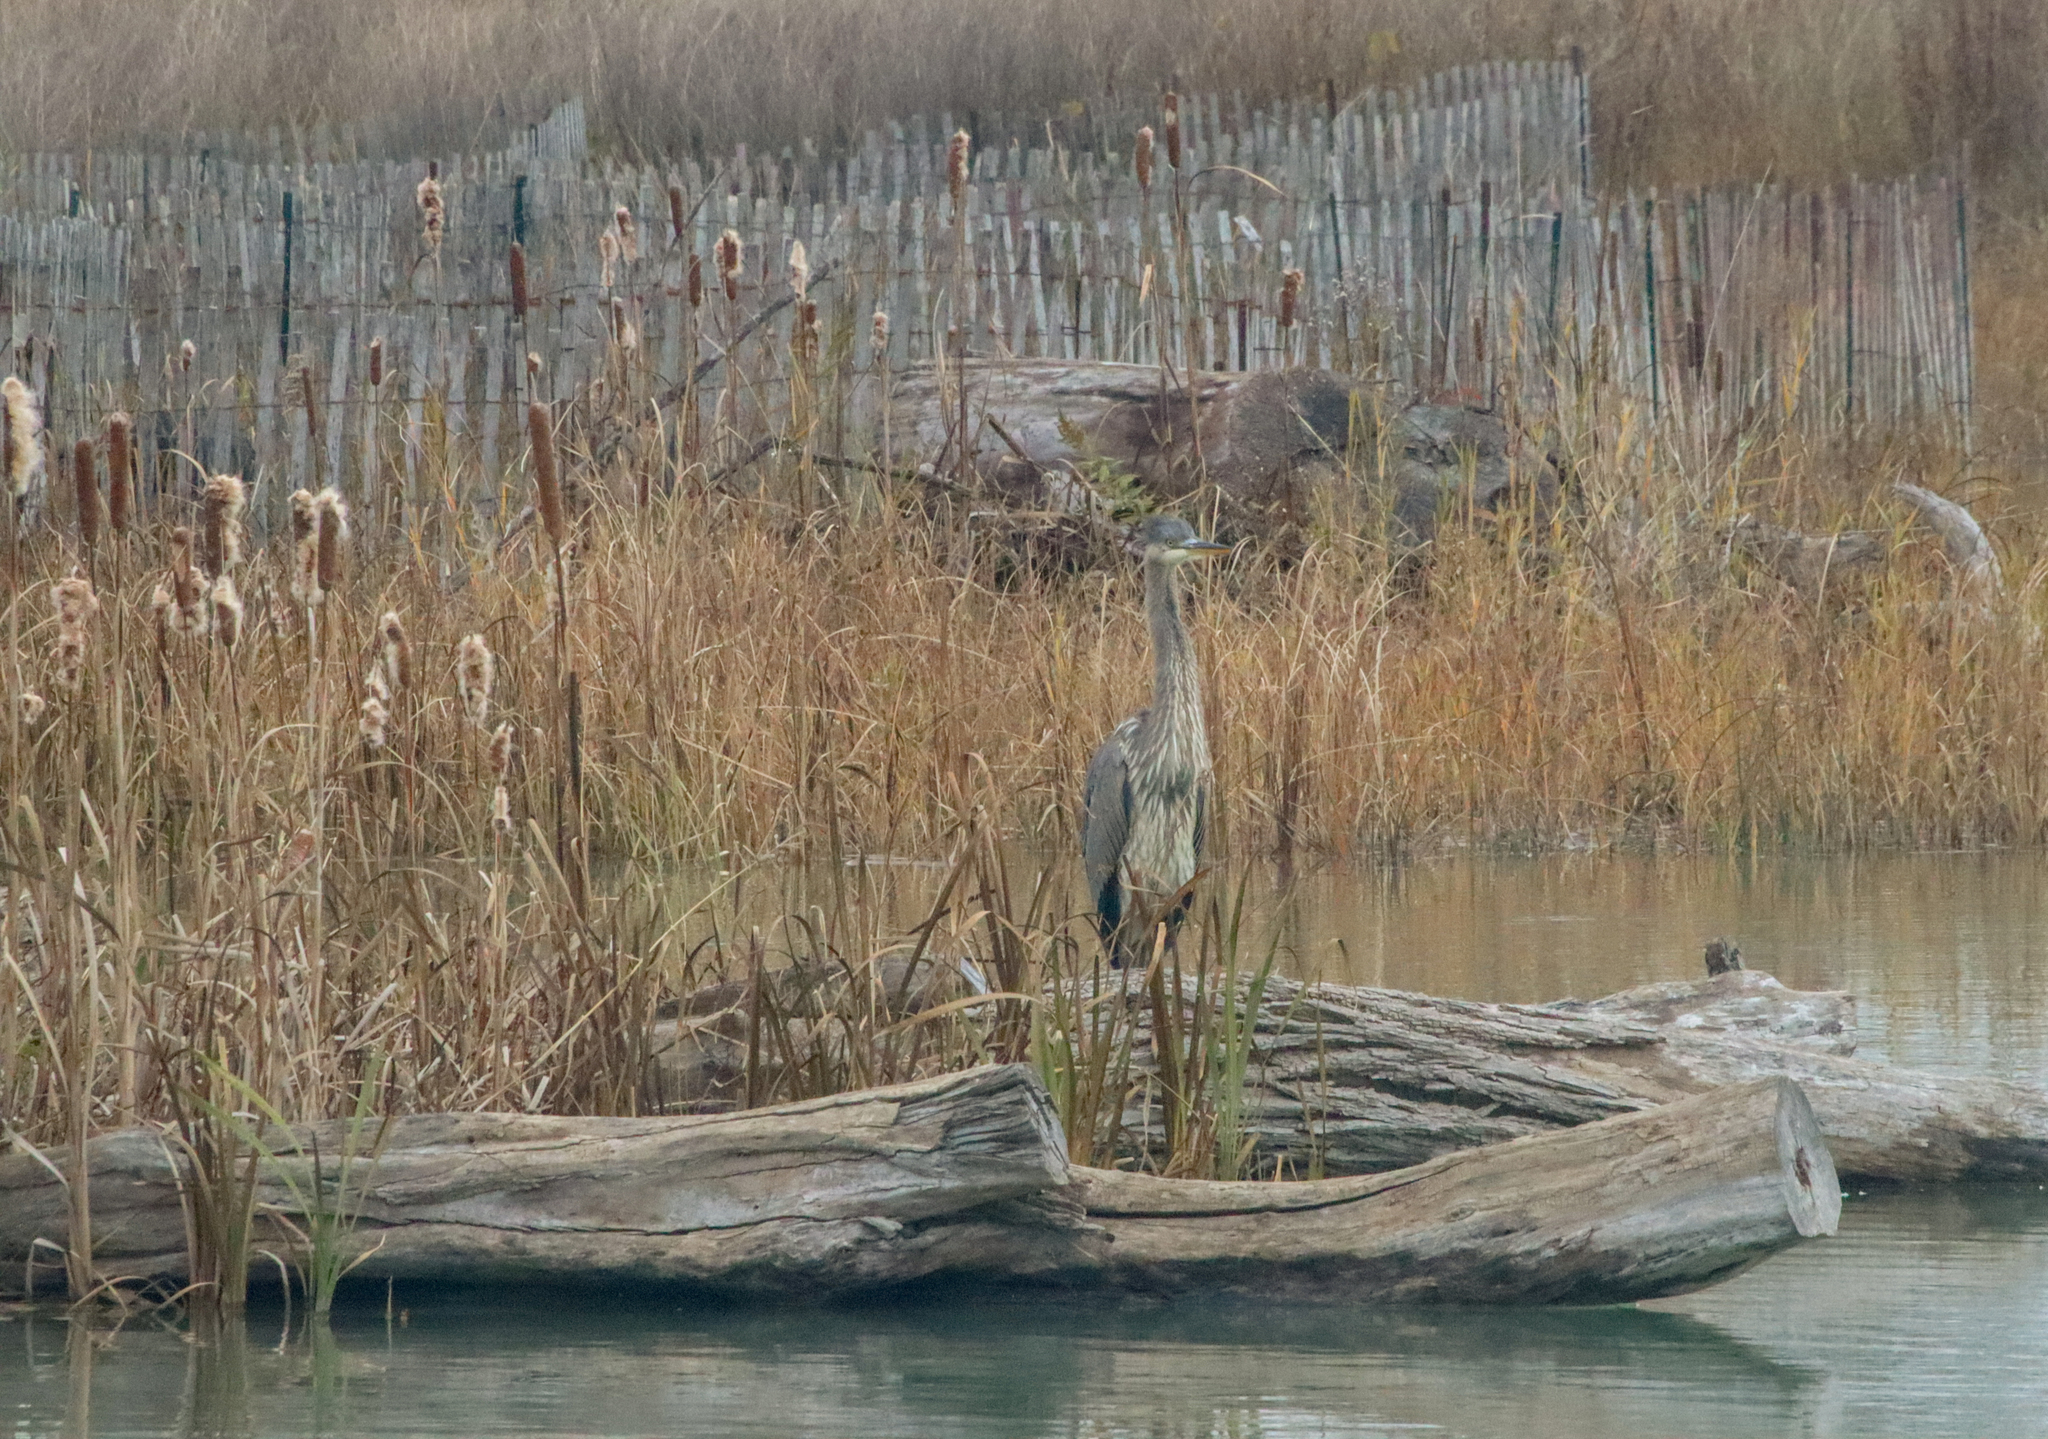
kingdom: Animalia
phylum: Chordata
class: Aves
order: Pelecaniformes
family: Ardeidae
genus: Ardea
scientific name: Ardea herodias
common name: Great blue heron
